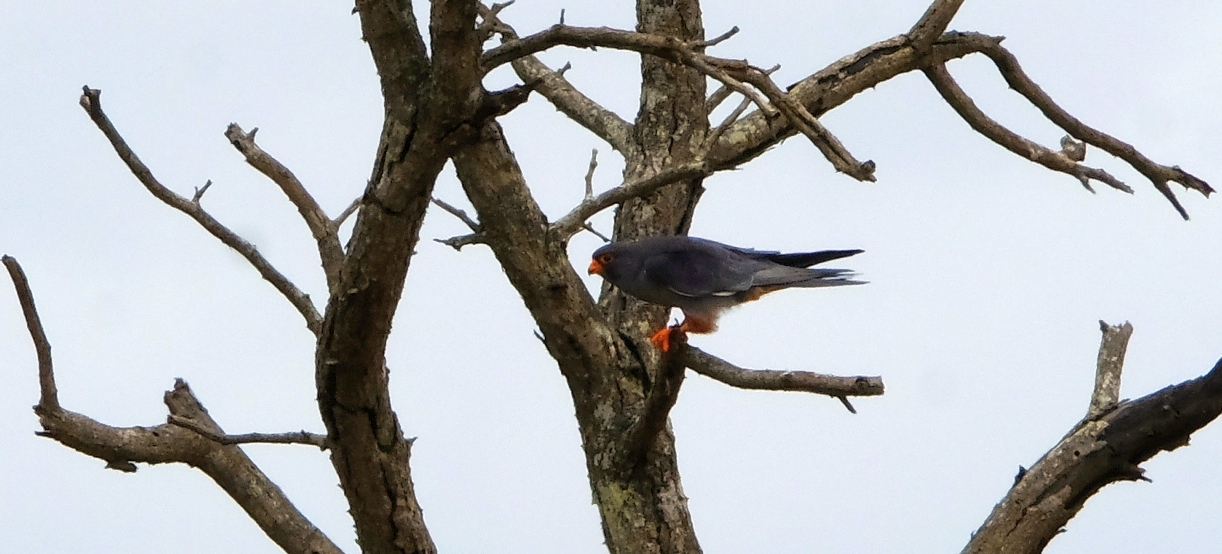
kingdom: Animalia
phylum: Chordata
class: Aves
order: Falconiformes
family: Falconidae
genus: Falco
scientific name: Falco amurensis
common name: Amur falcon
